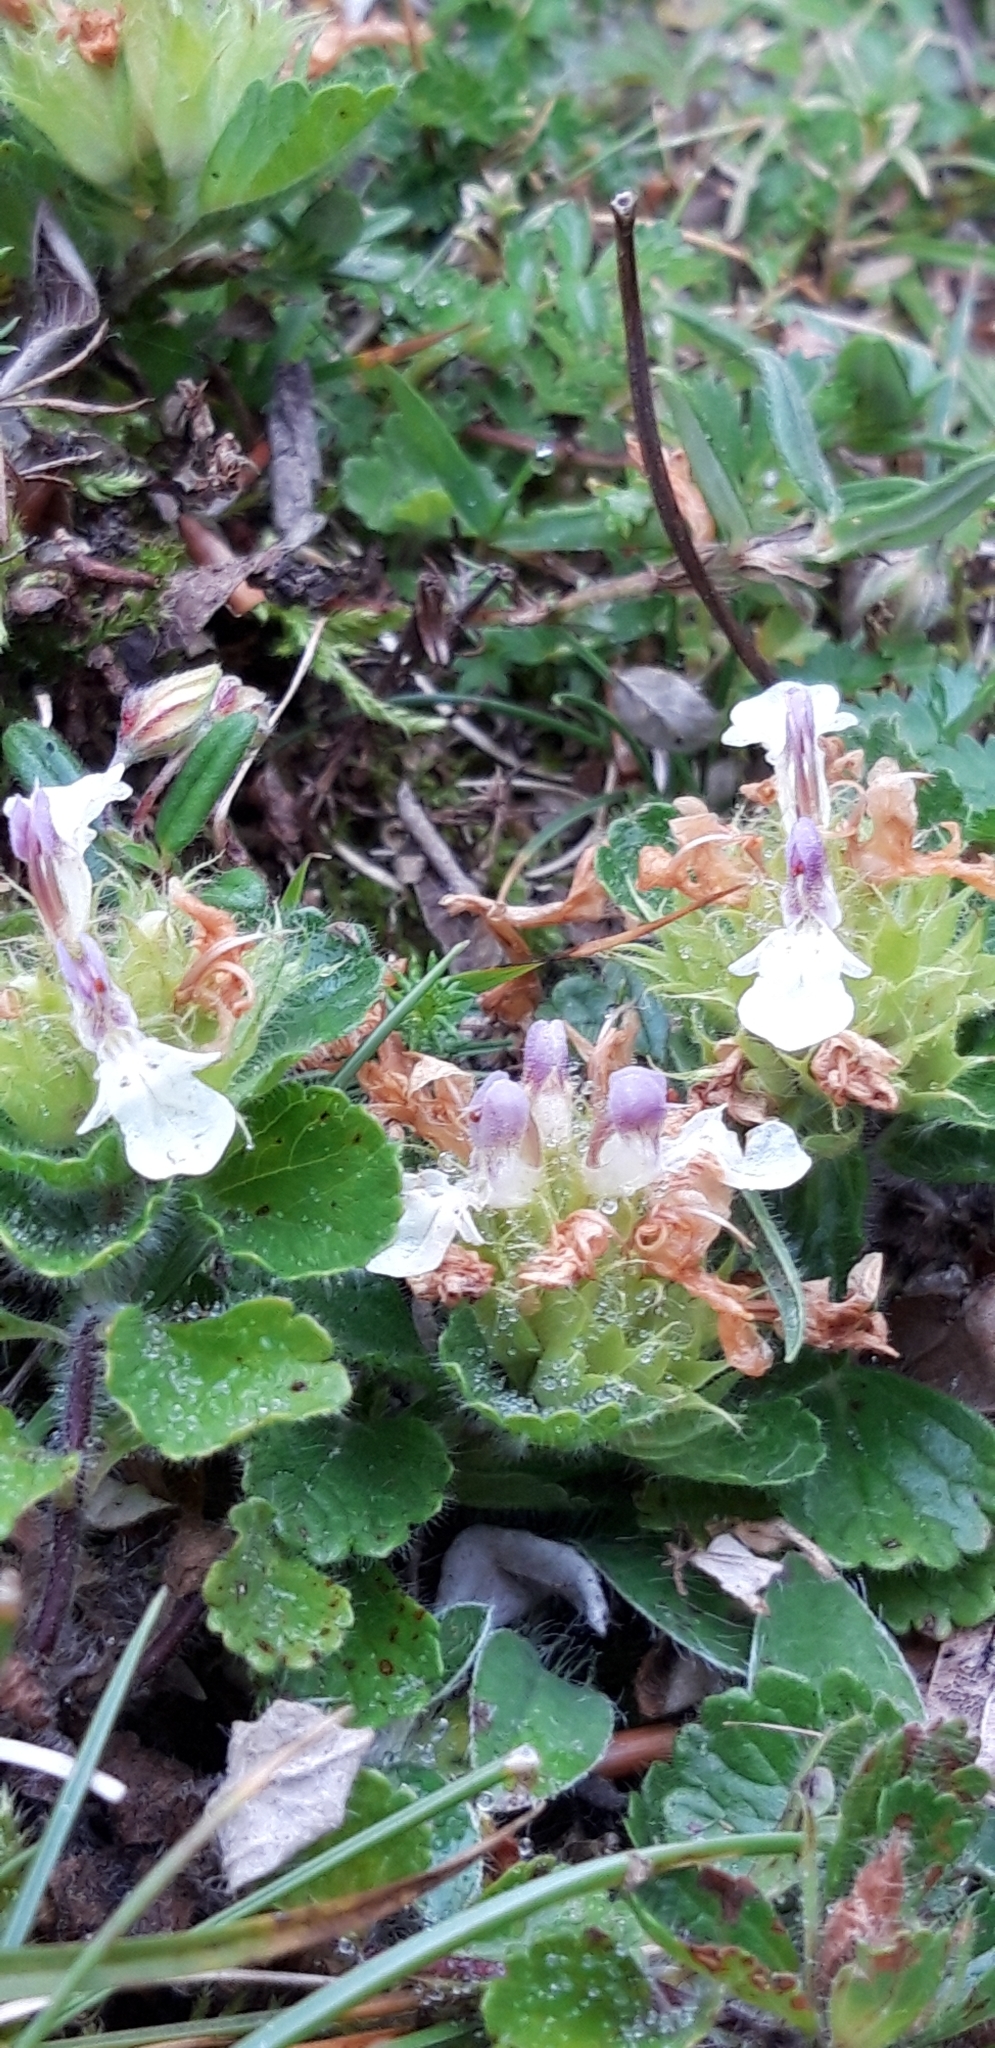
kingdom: Plantae
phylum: Tracheophyta
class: Magnoliopsida
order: Lamiales
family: Lamiaceae
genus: Teucrium
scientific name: Teucrium pyrenaicum
